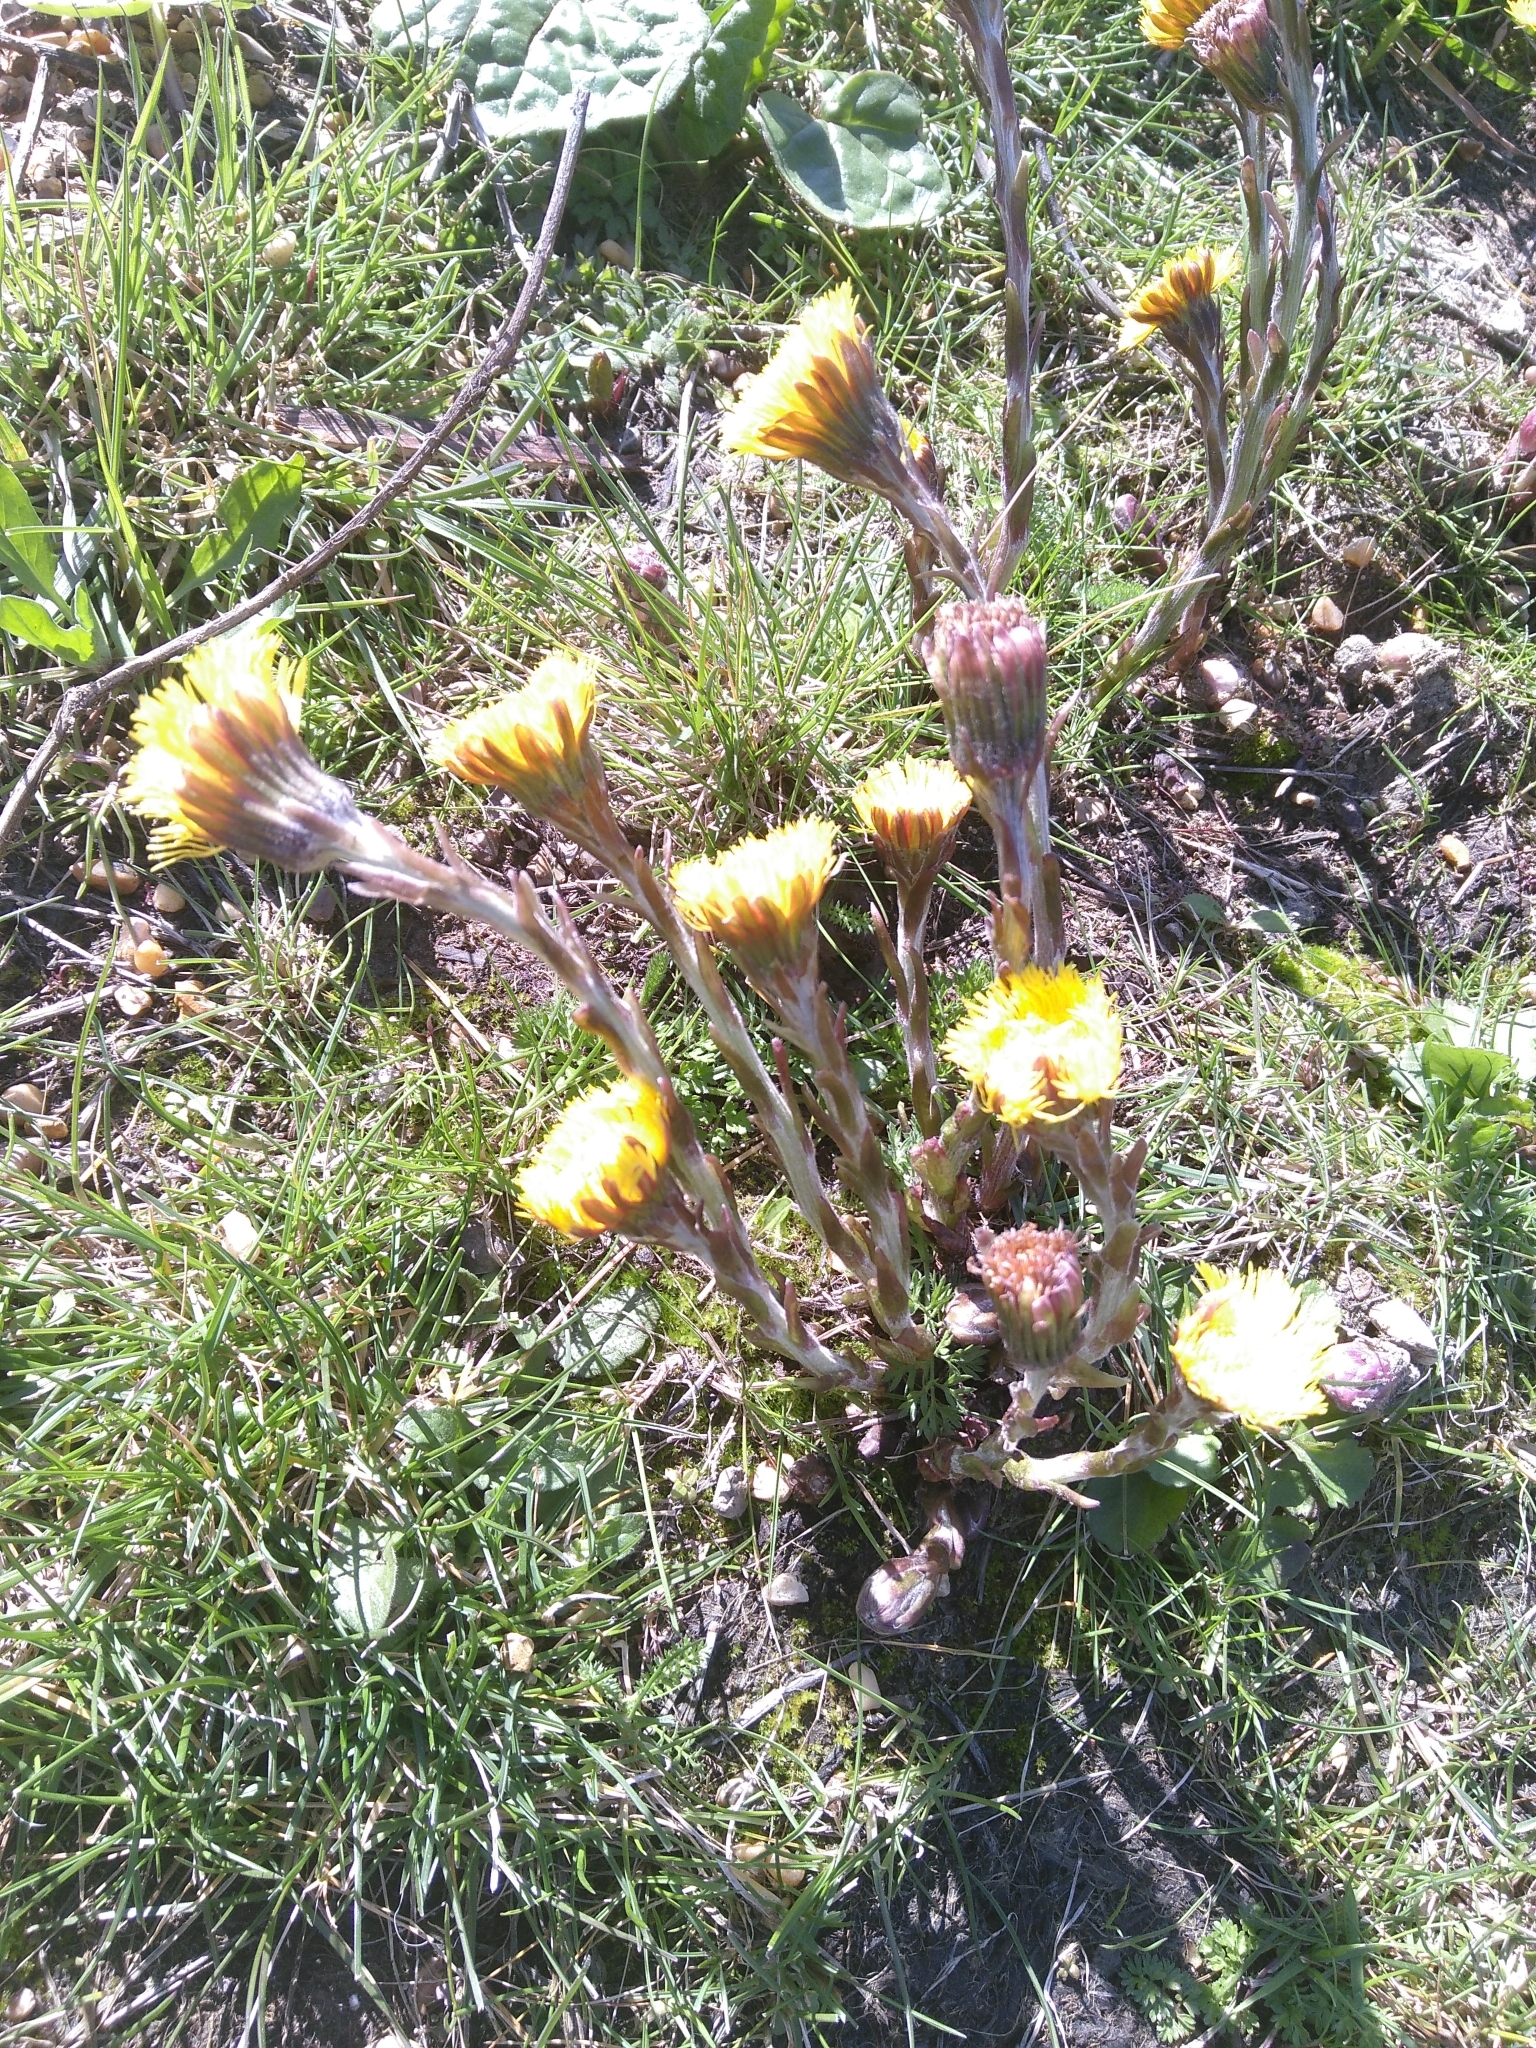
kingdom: Plantae
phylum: Tracheophyta
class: Magnoliopsida
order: Asterales
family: Asteraceae
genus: Tussilago
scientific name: Tussilago farfara
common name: Coltsfoot
